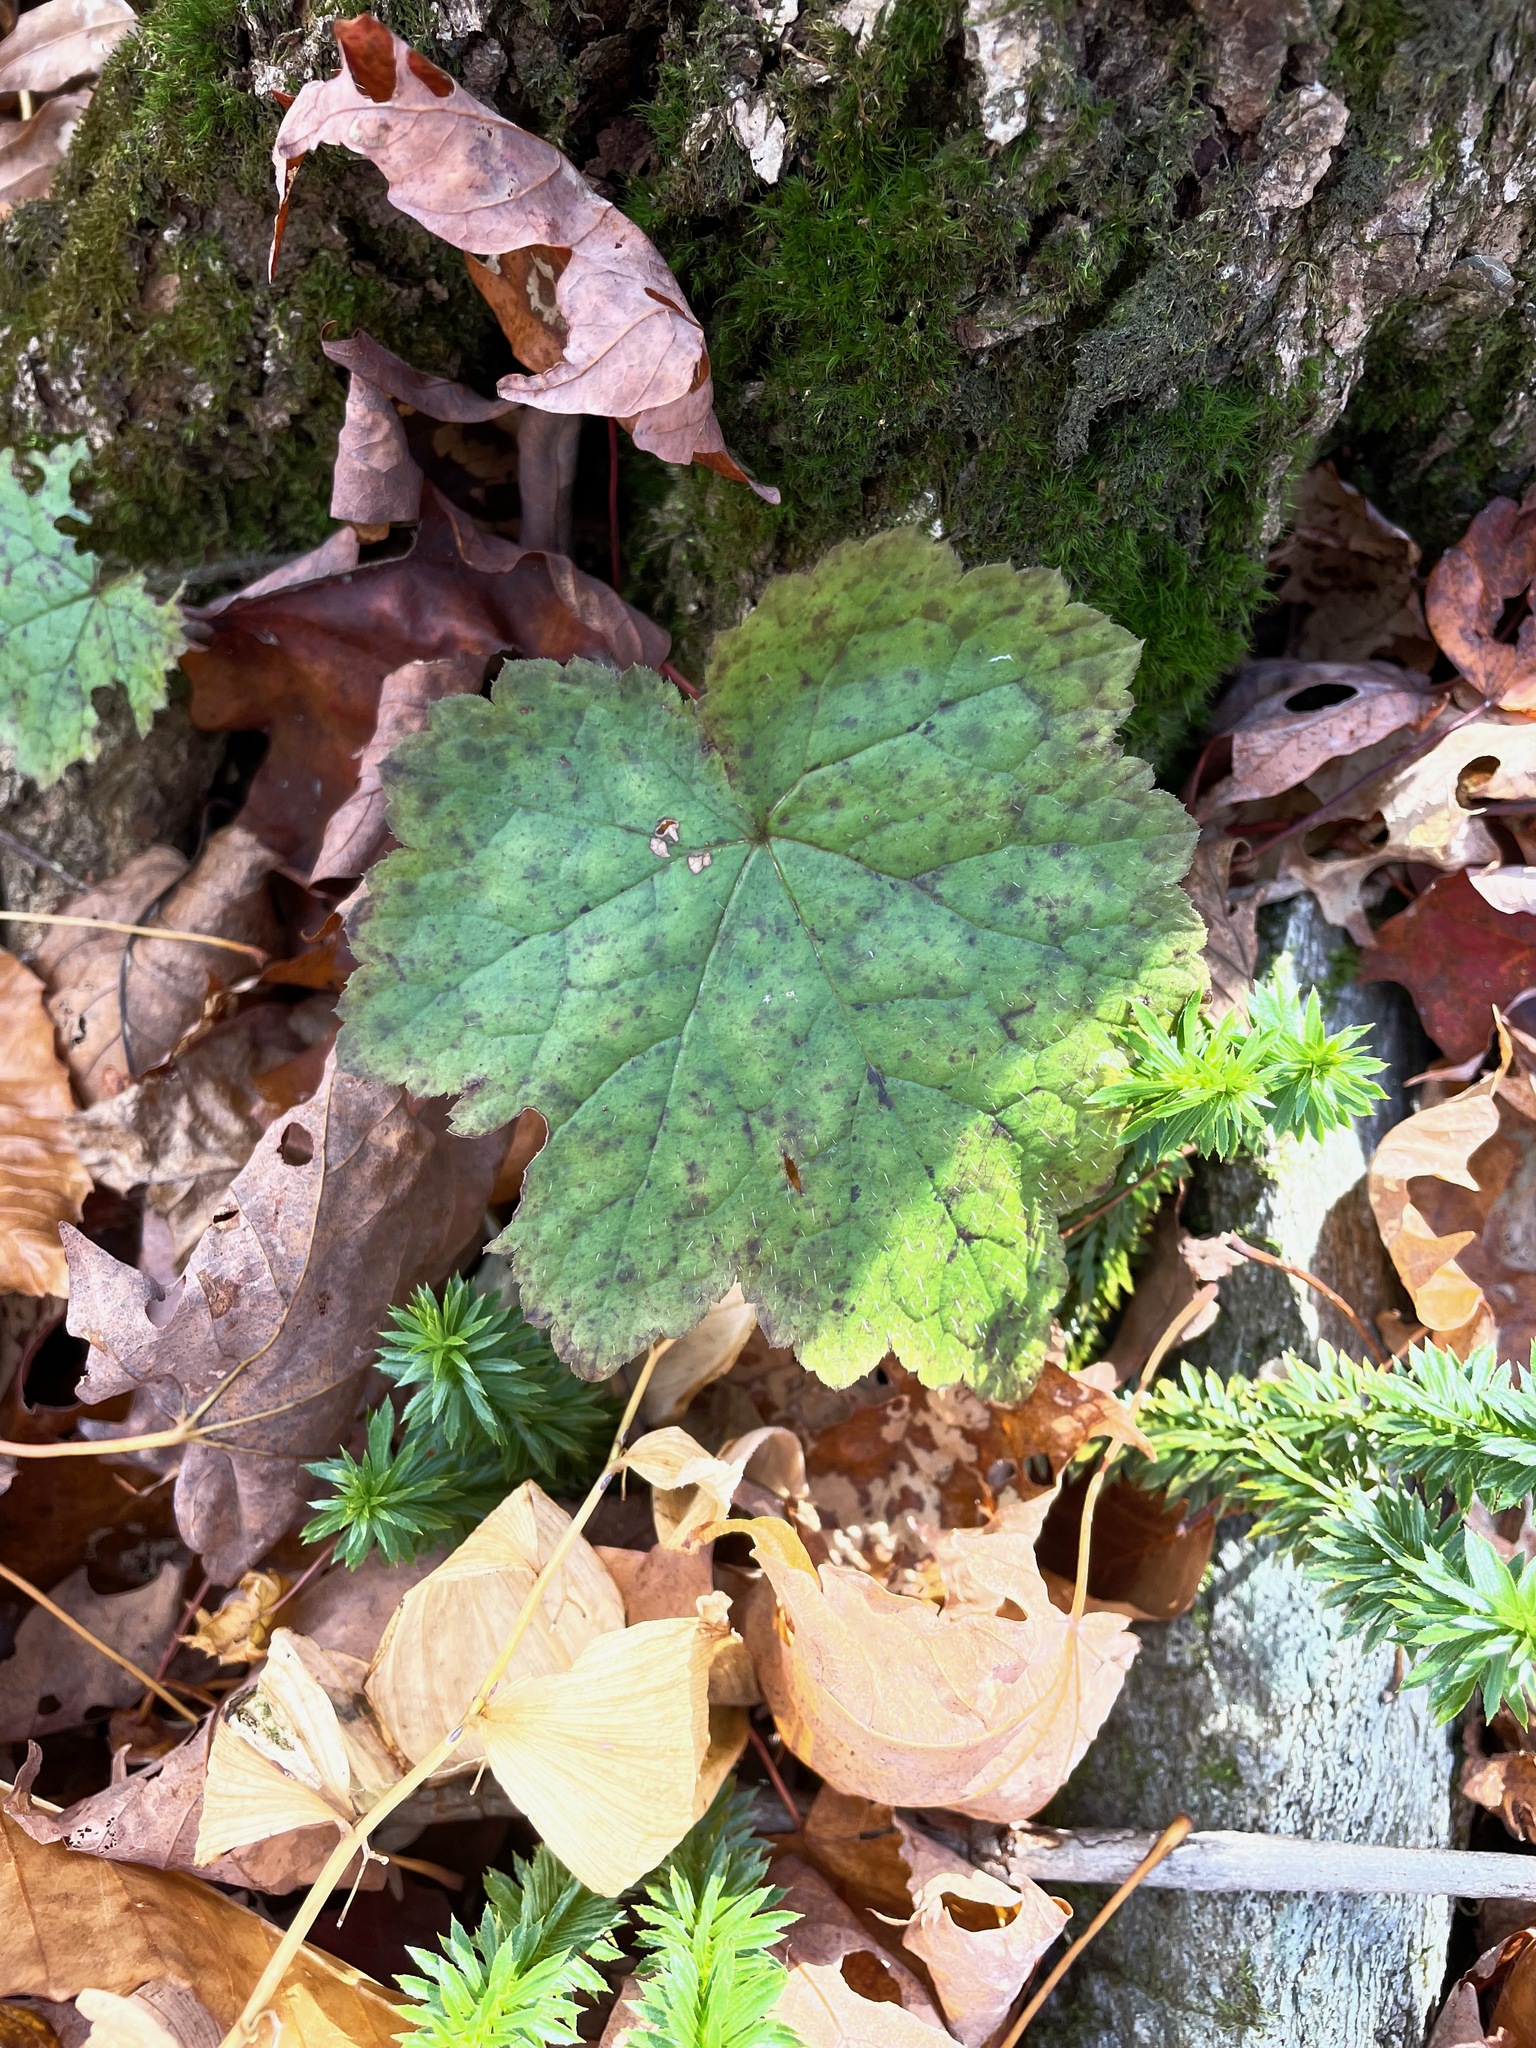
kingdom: Plantae
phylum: Tracheophyta
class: Magnoliopsida
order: Saxifragales
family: Saxifragaceae
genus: Tiarella
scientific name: Tiarella stolonifera
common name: Stoloniferous foamflower
